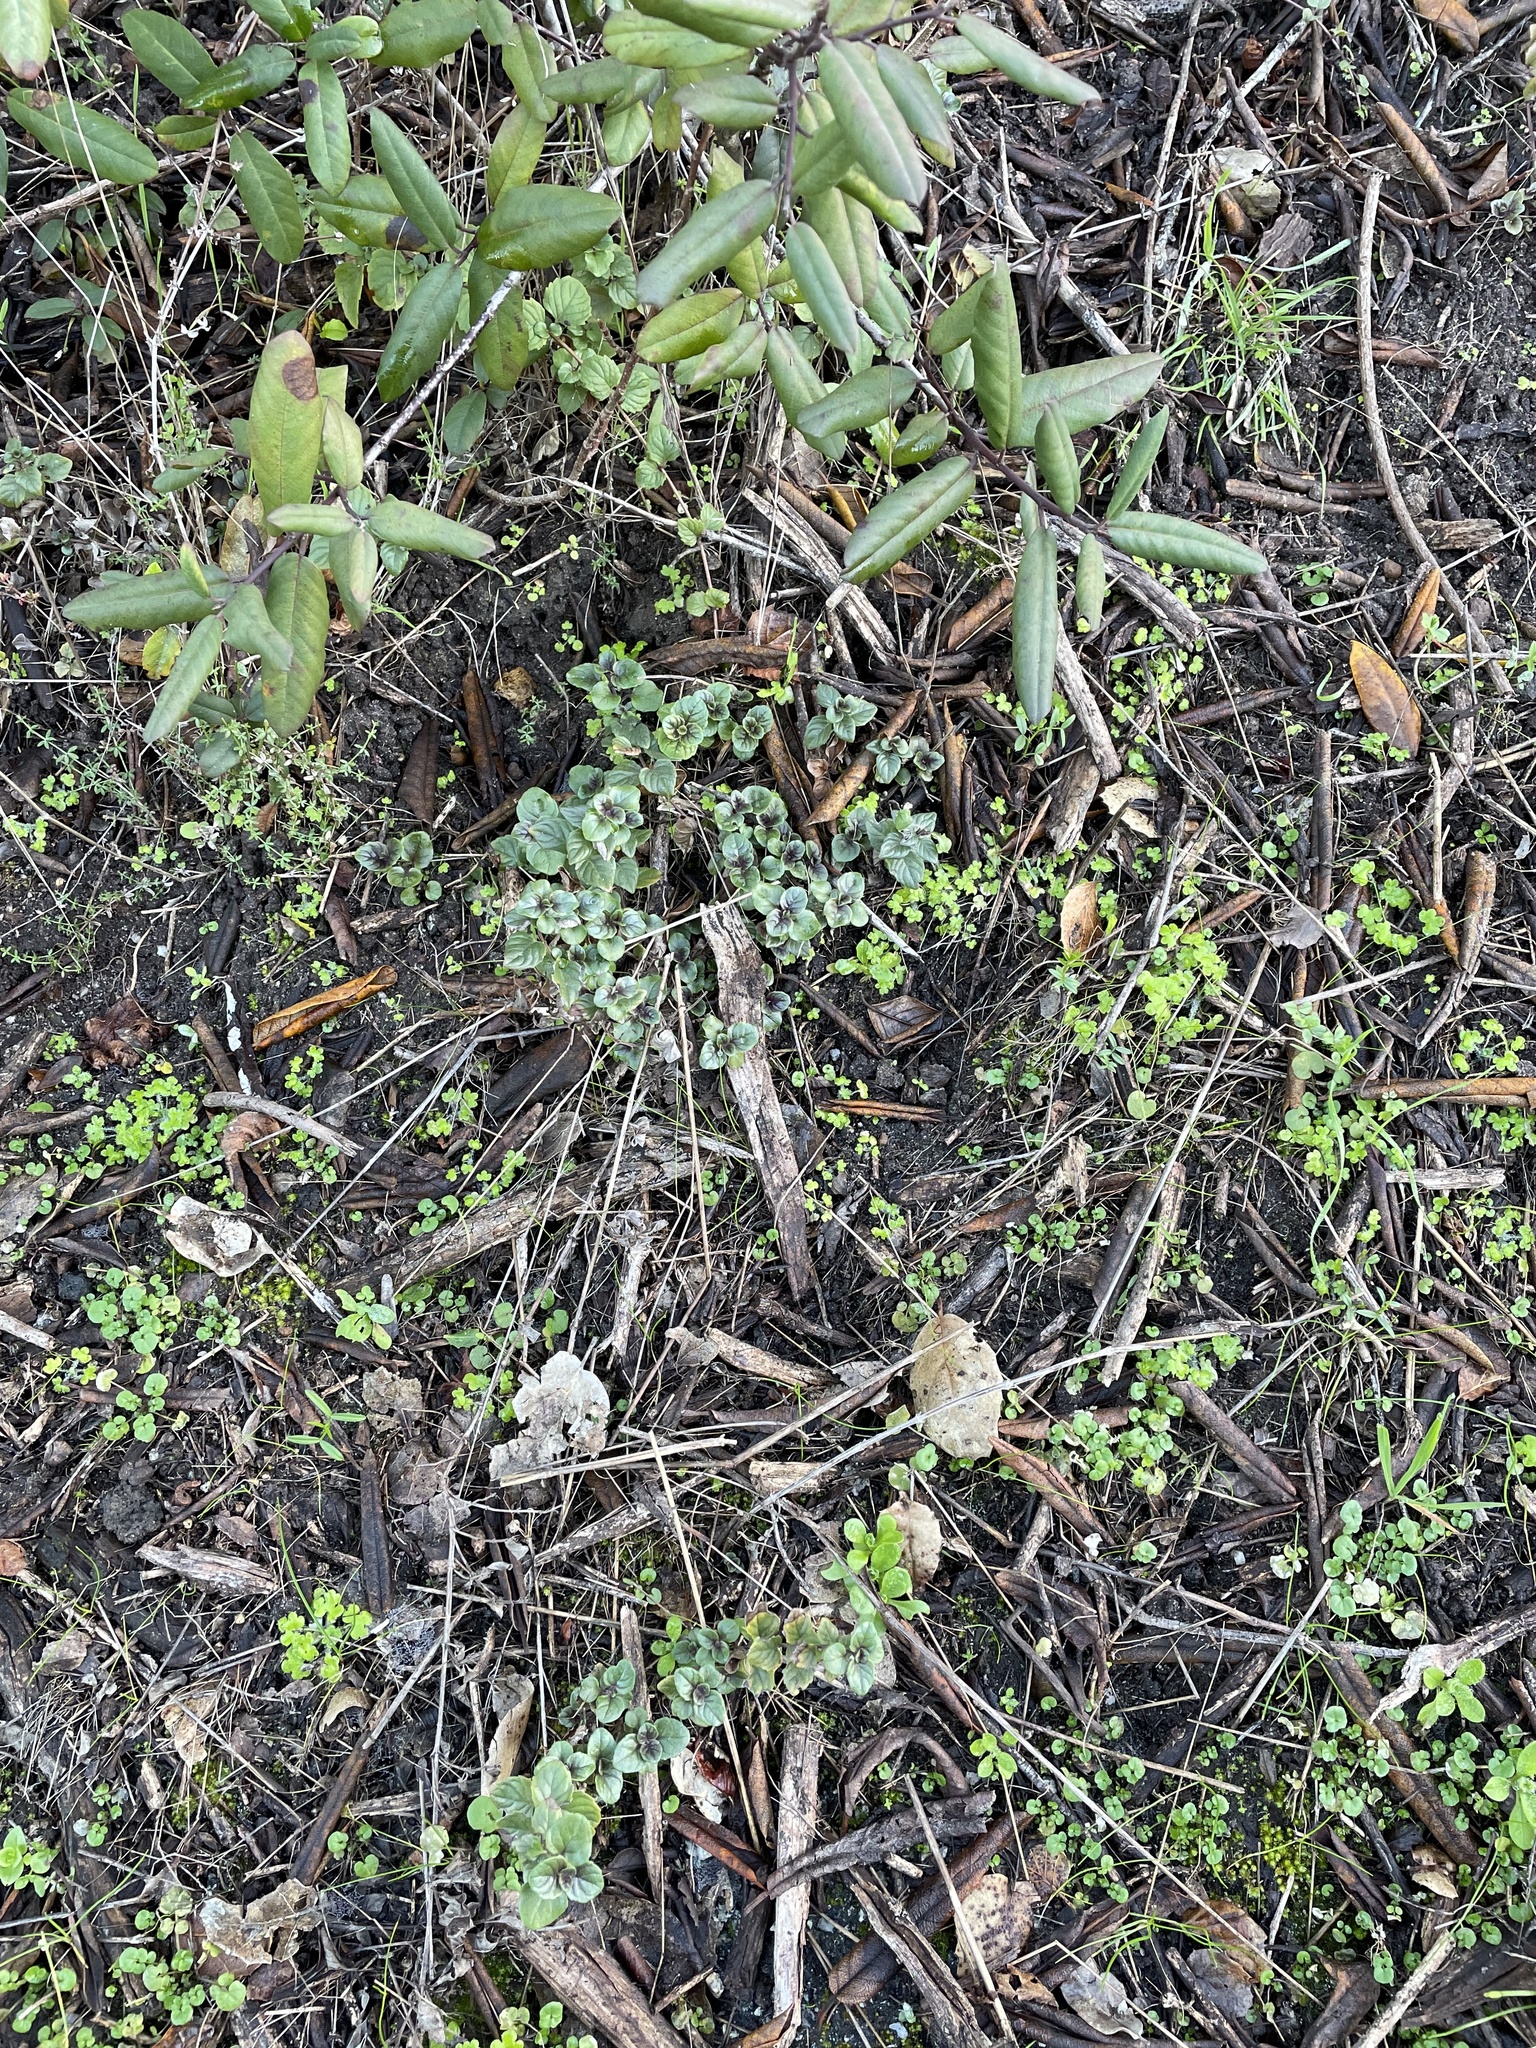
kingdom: Plantae
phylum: Tracheophyta
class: Magnoliopsida
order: Lamiales
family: Lamiaceae
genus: Micromeria
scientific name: Micromeria douglasii
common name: Yerba buena
